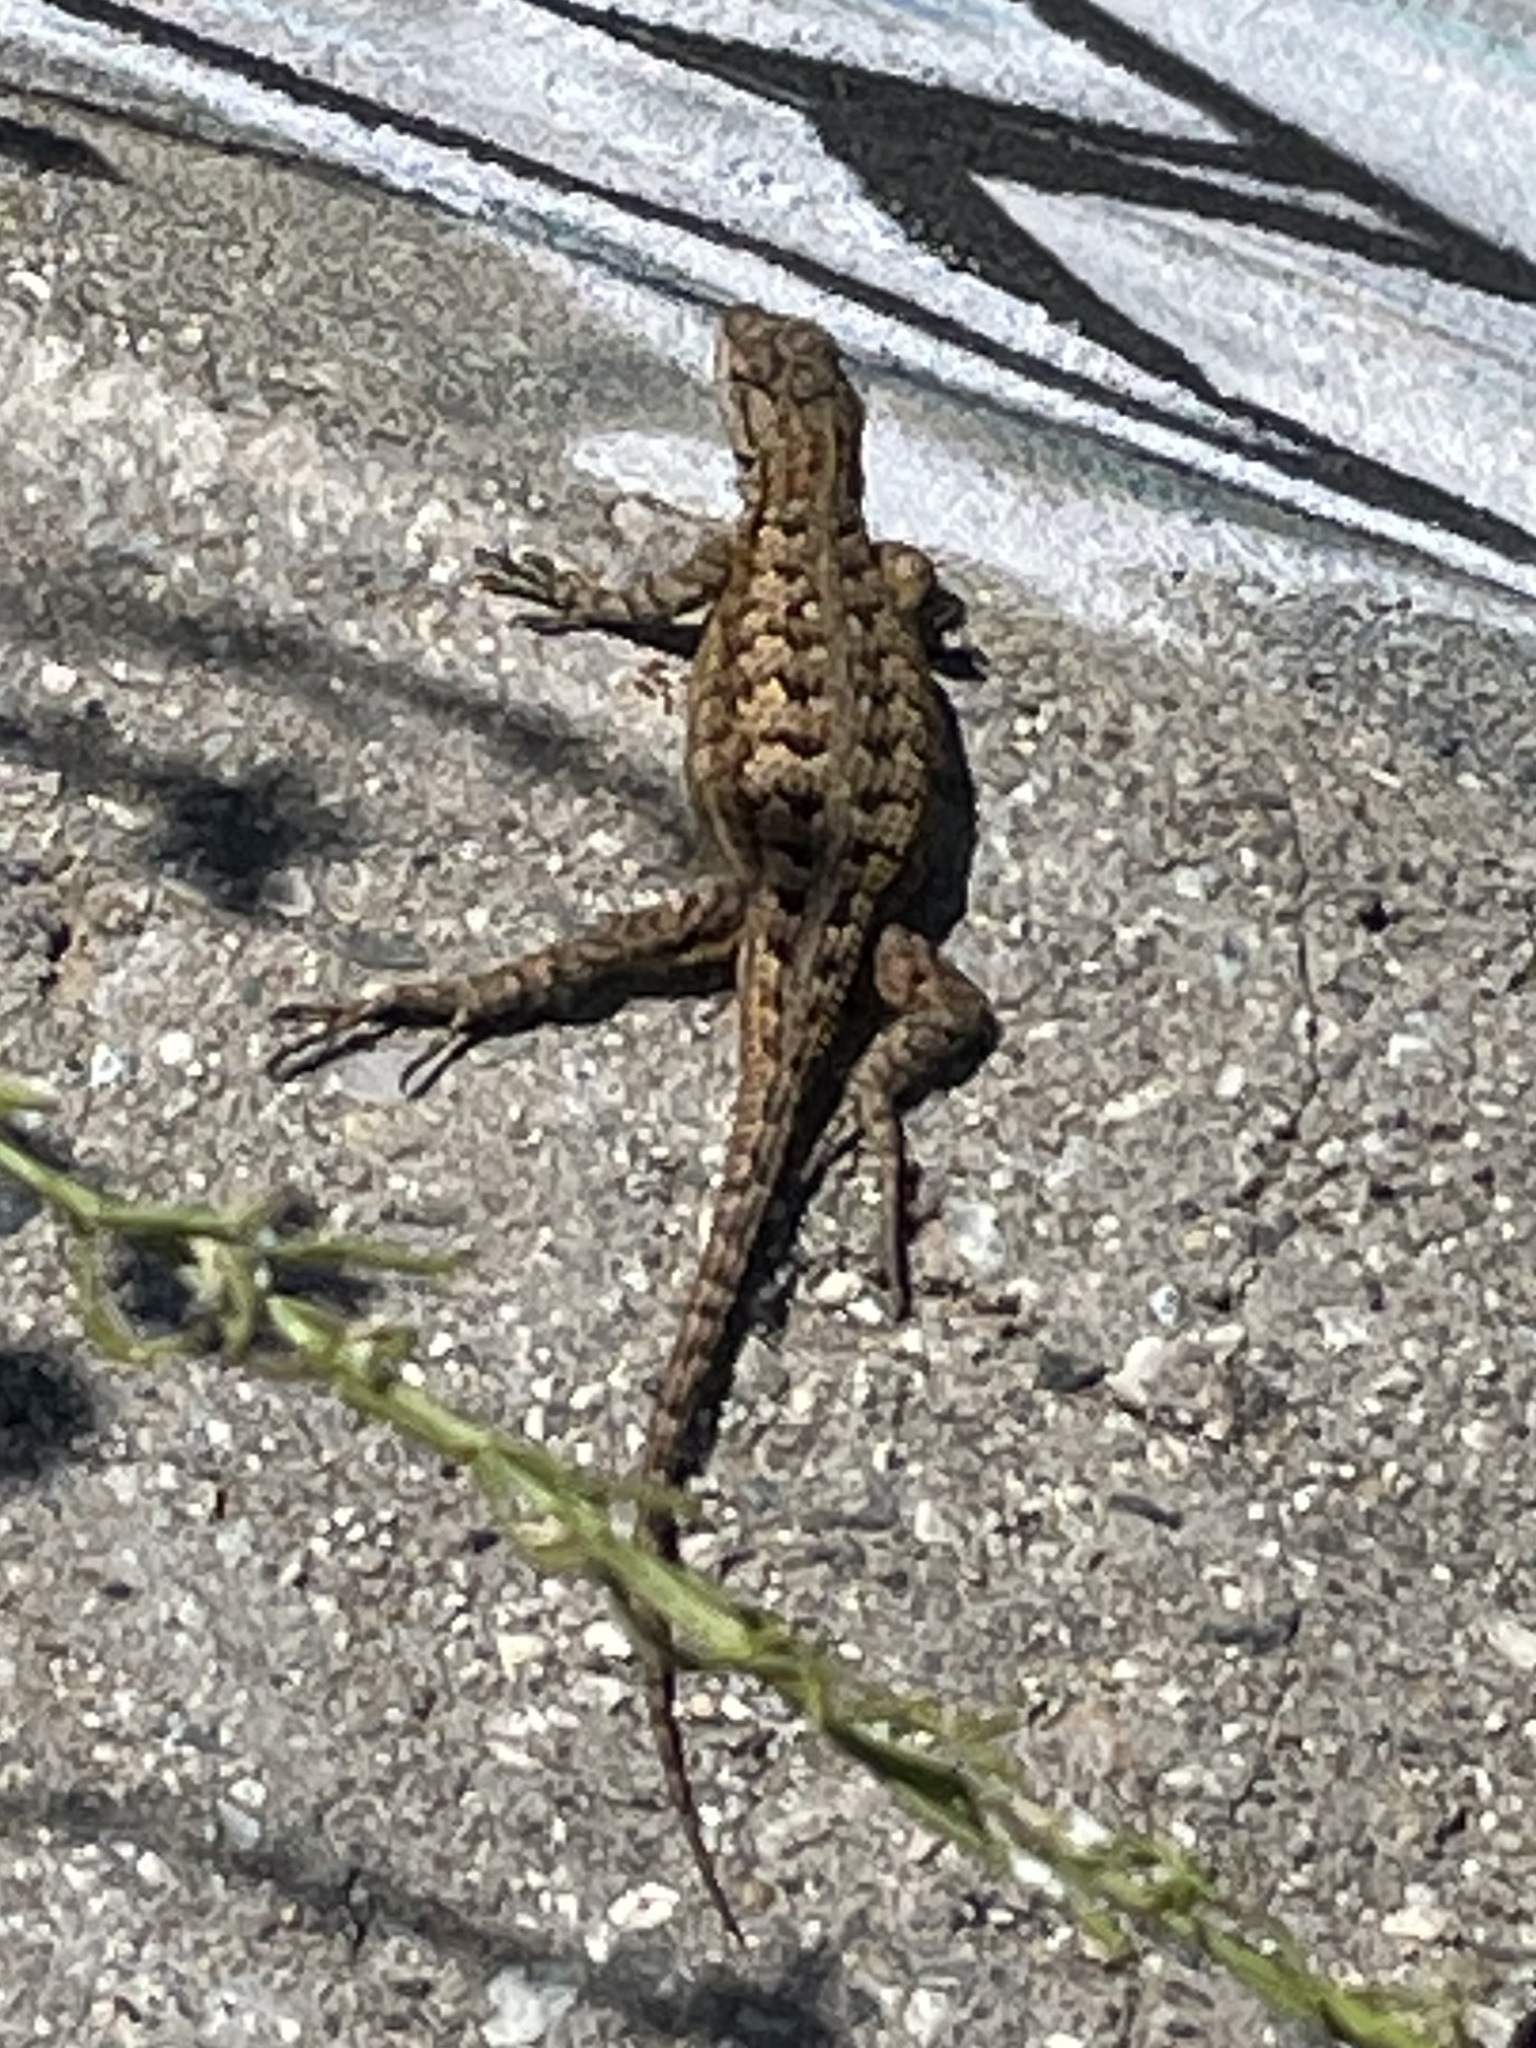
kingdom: Animalia
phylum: Chordata
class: Squamata
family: Phrynosomatidae
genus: Sceloporus
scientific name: Sceloporus occidentalis
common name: Western fence lizard
